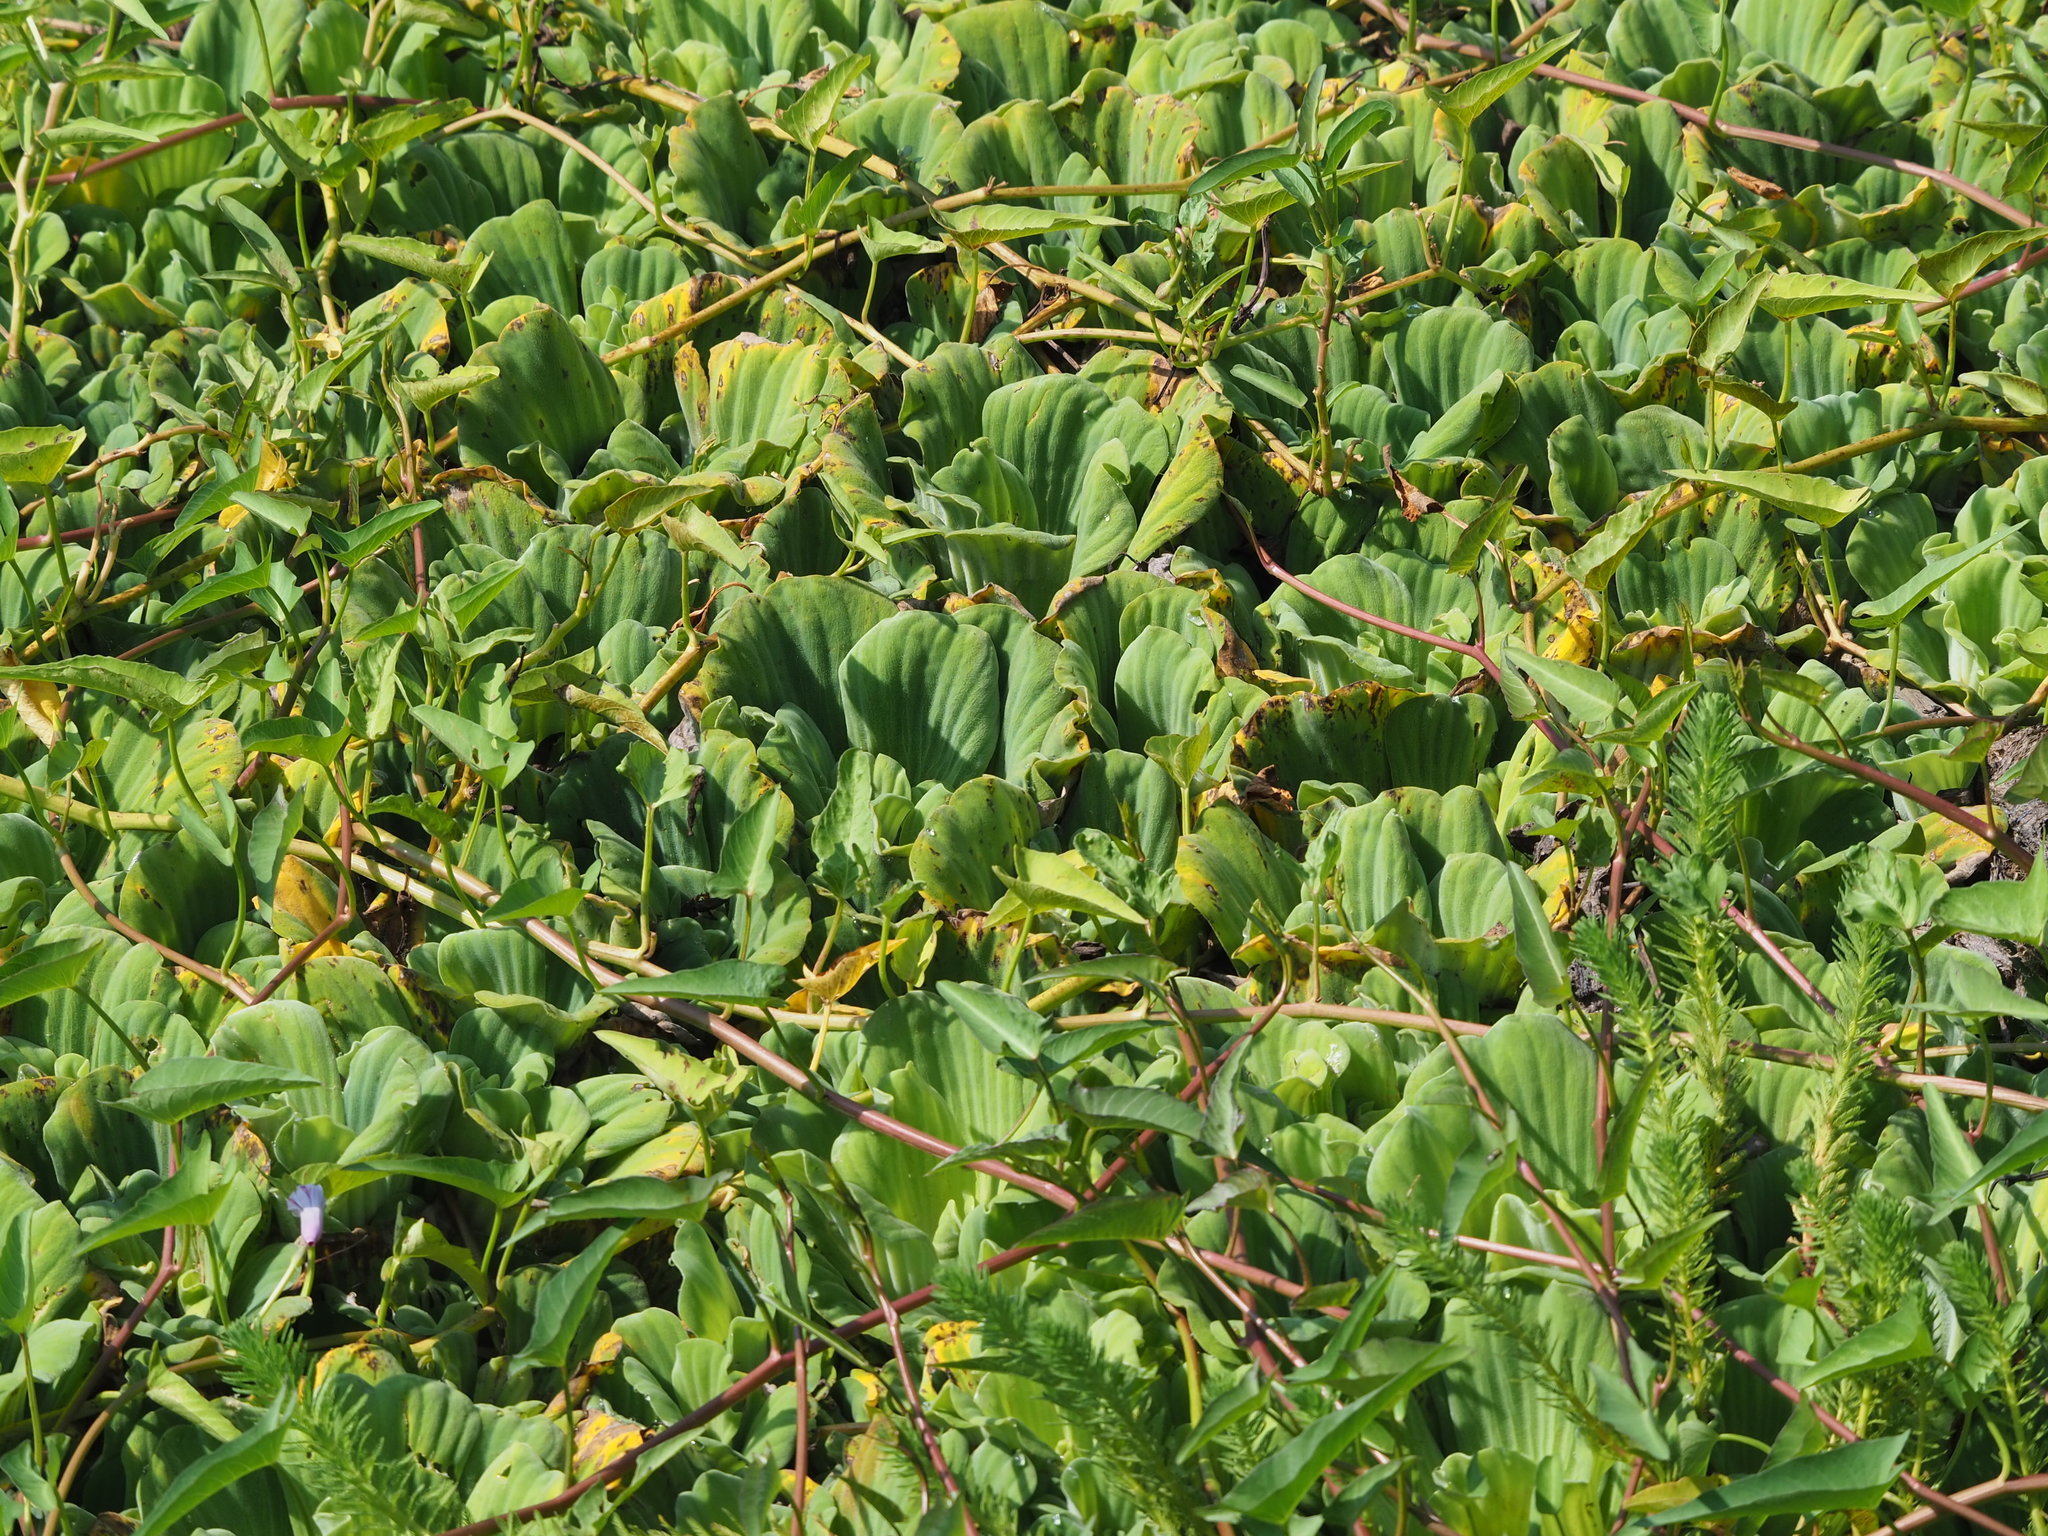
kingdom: Plantae
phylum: Tracheophyta
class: Liliopsida
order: Alismatales
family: Araceae
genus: Pistia
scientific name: Pistia stratiotes
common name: Water lettuce
